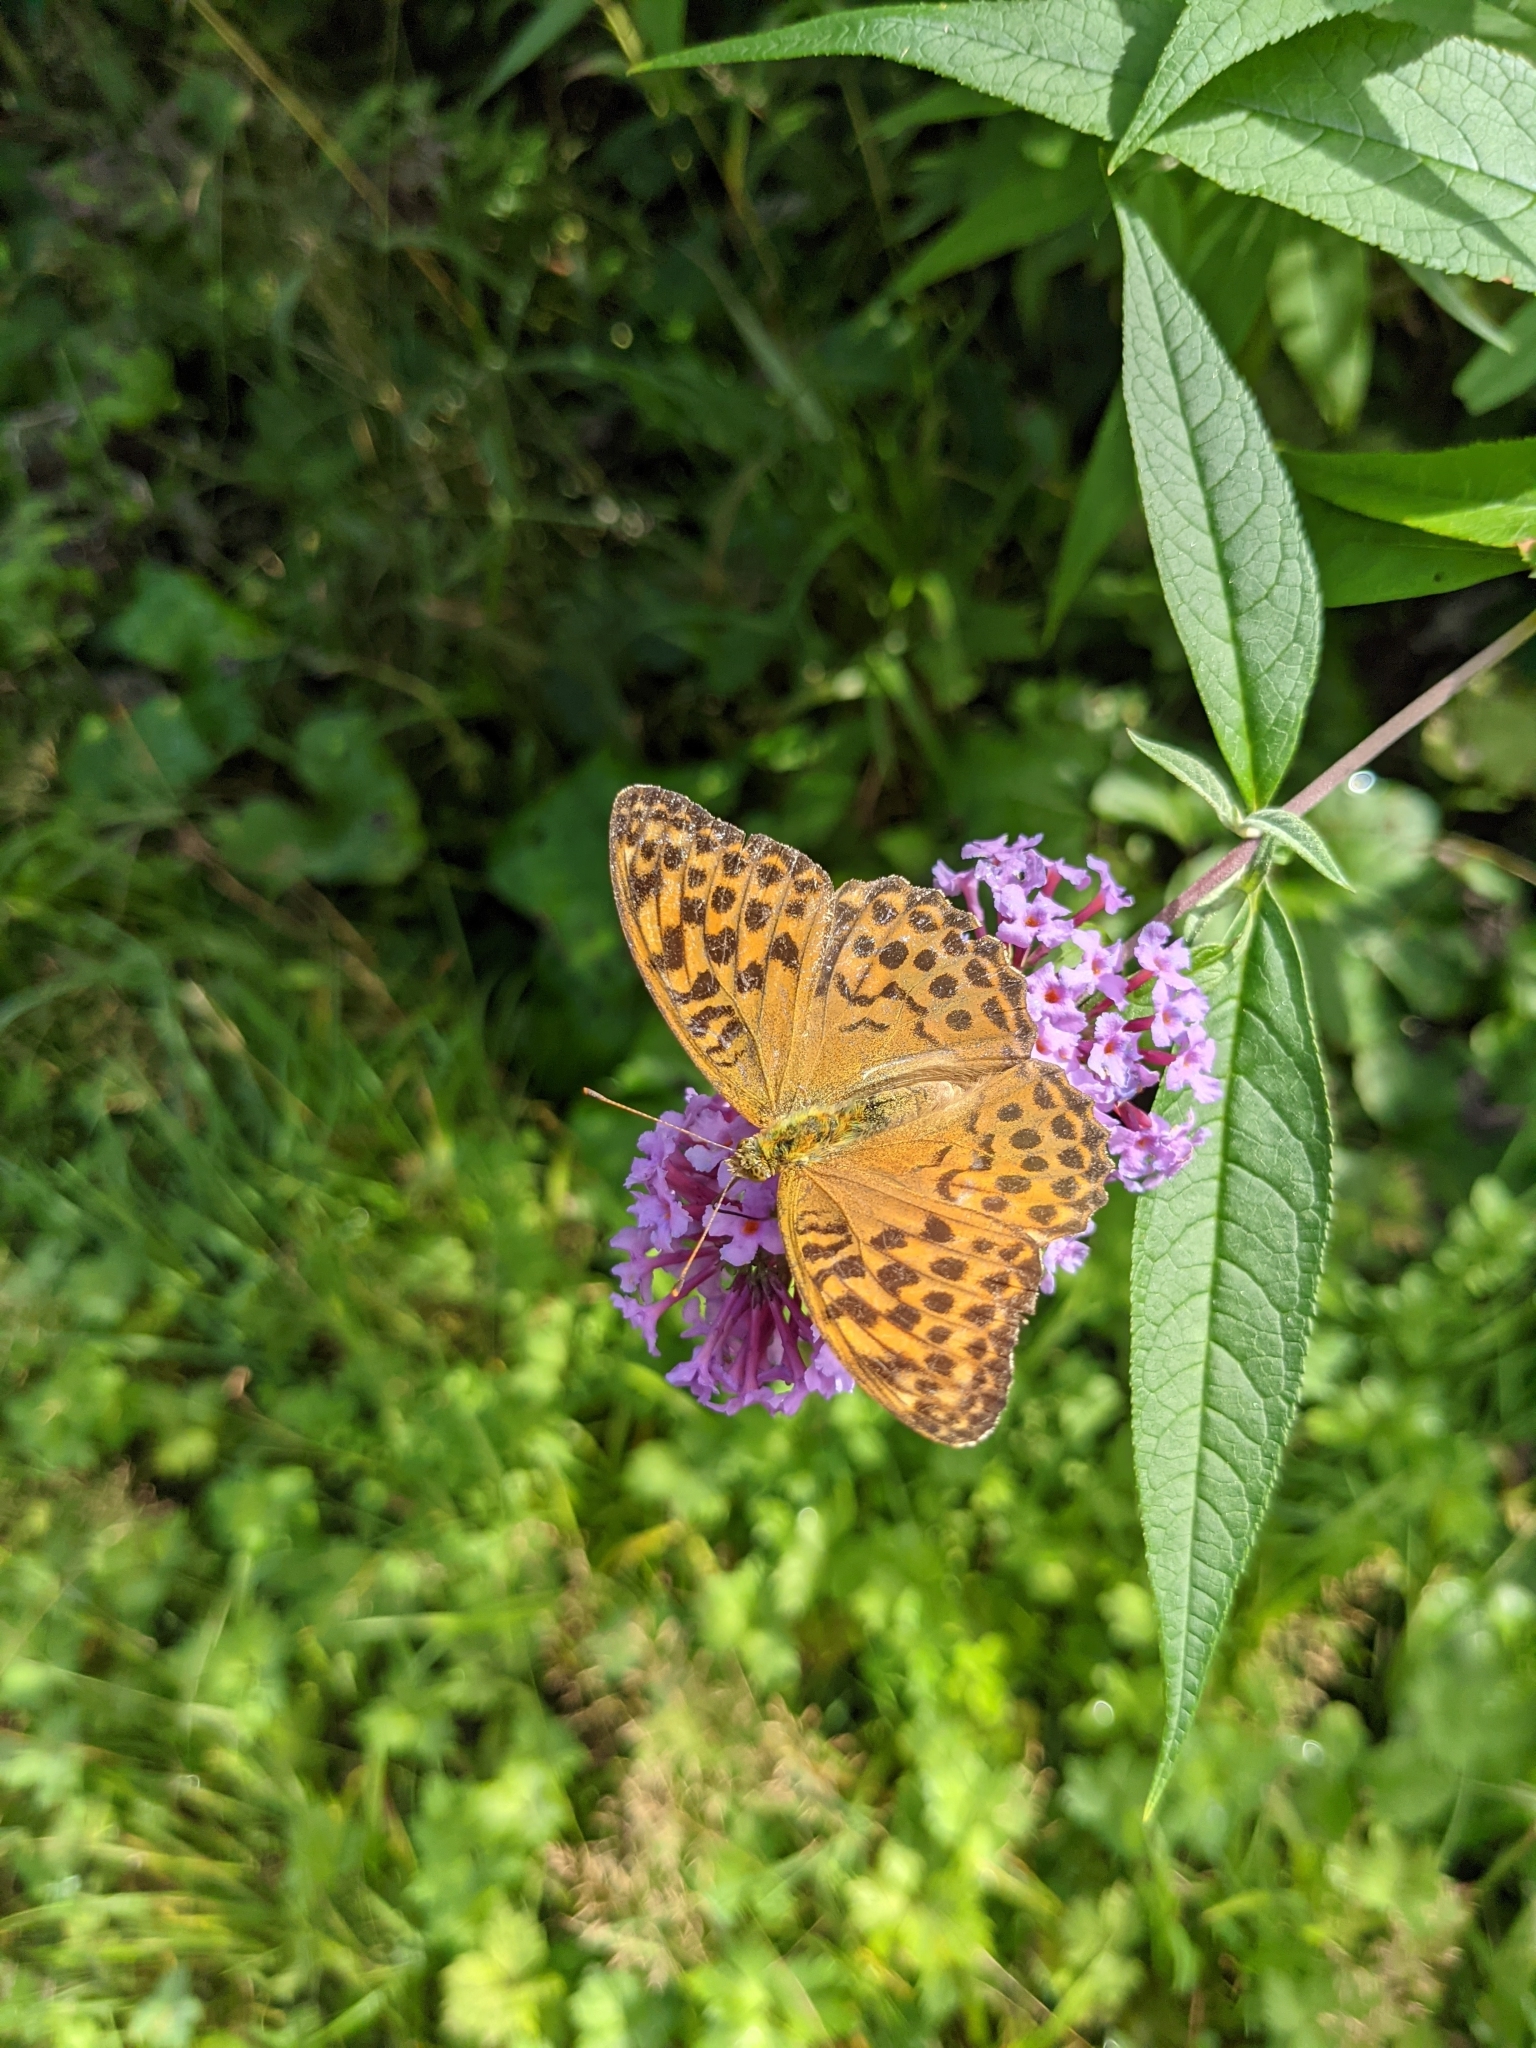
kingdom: Animalia
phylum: Arthropoda
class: Insecta
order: Lepidoptera
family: Nymphalidae
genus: Argynnis
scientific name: Argynnis paphia
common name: Silver-washed fritillary
